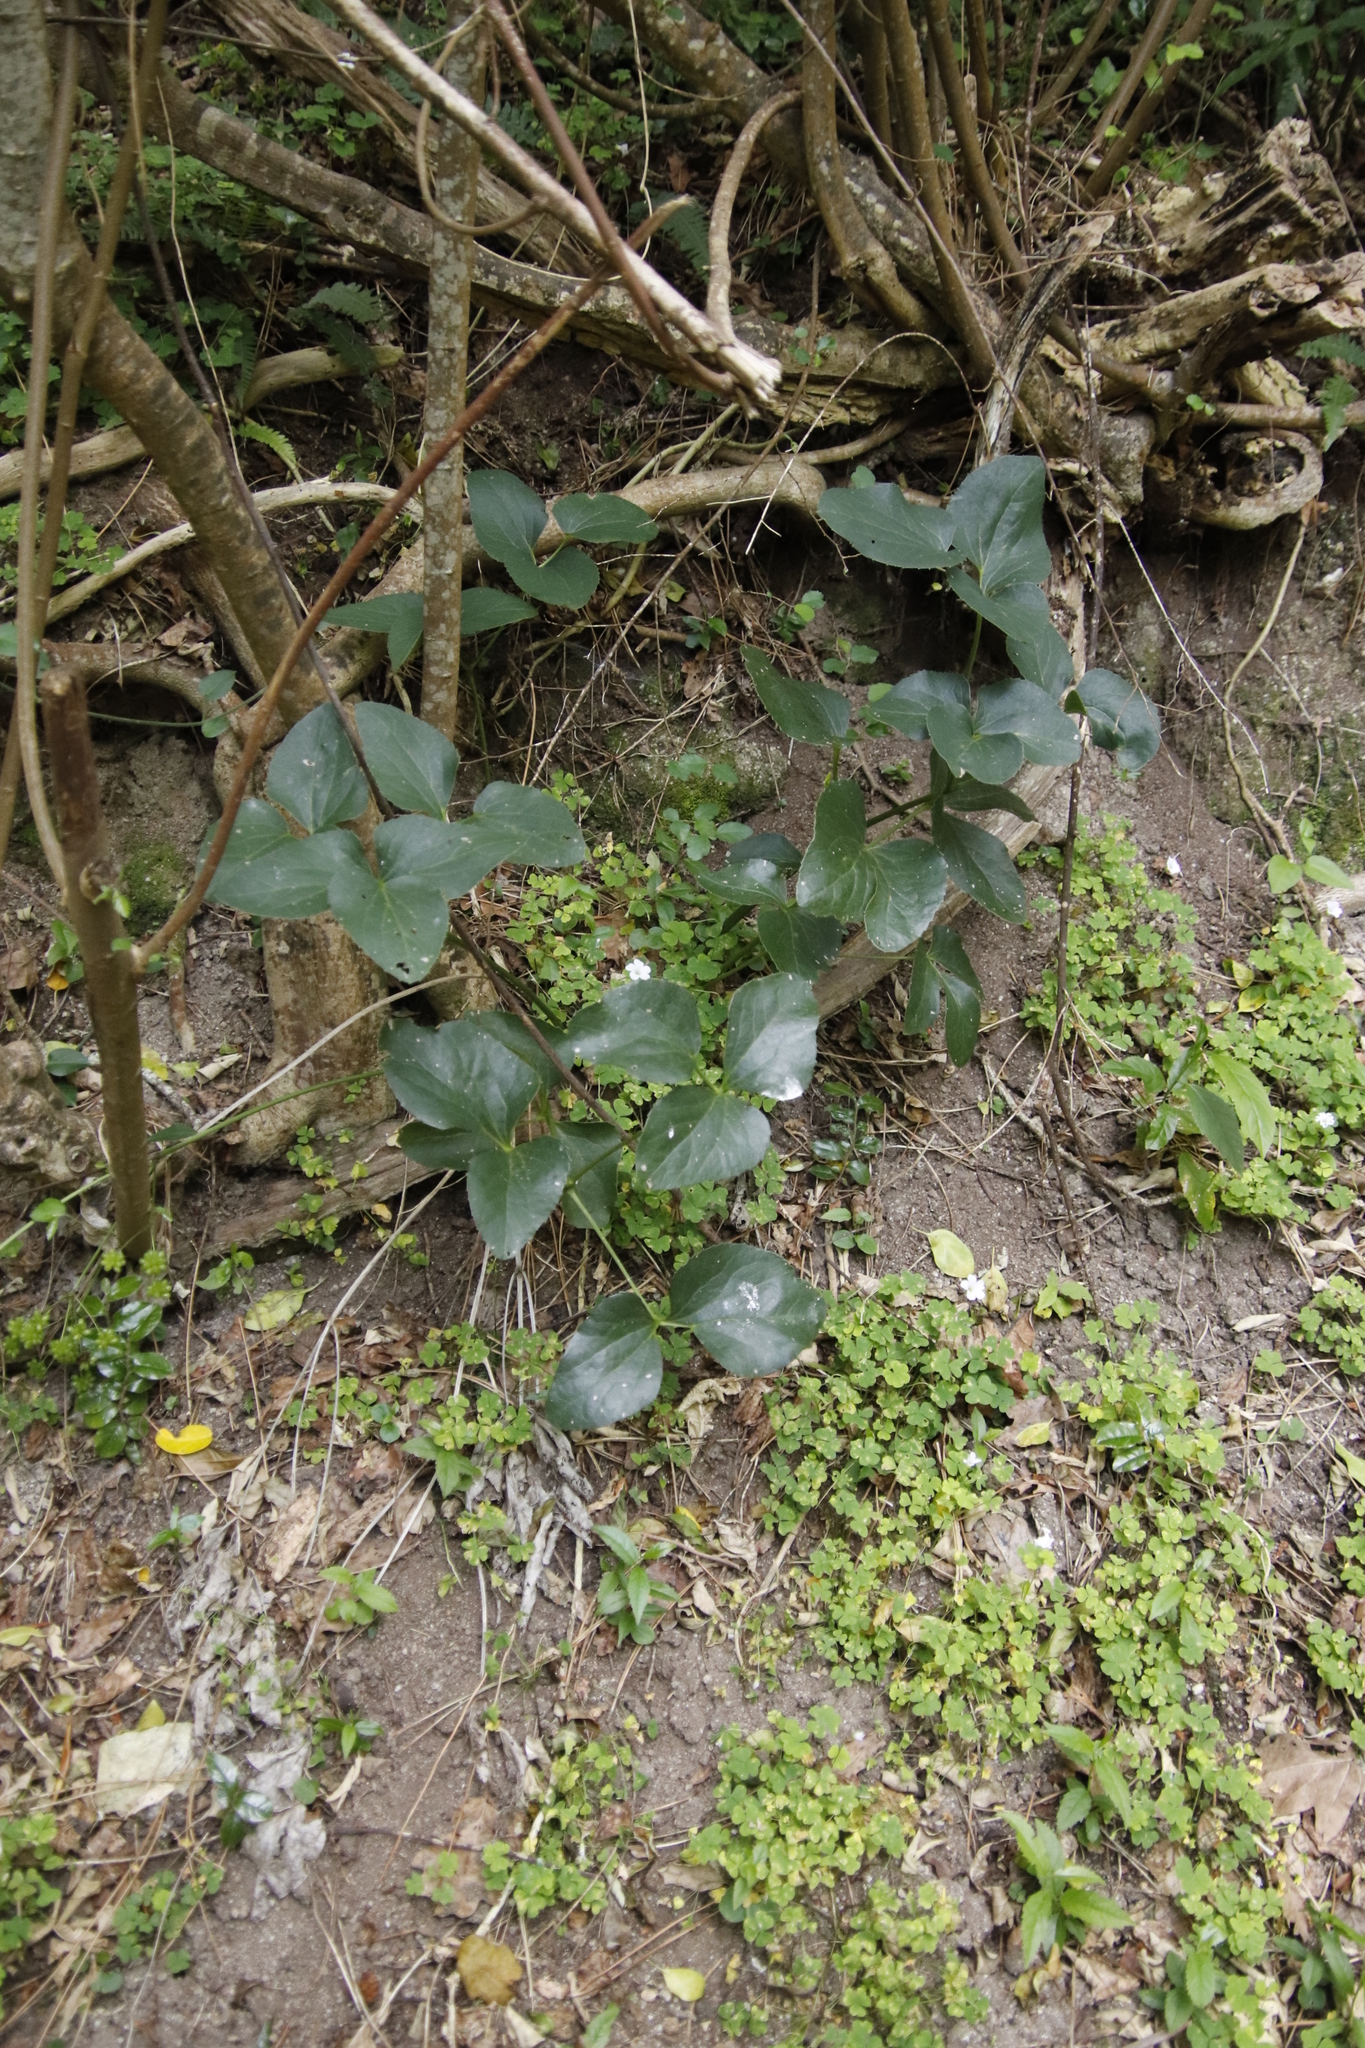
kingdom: Plantae
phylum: Tracheophyta
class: Magnoliopsida
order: Ranunculales
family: Ranunculaceae
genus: Knowltonia
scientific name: Knowltonia vesicatoria
